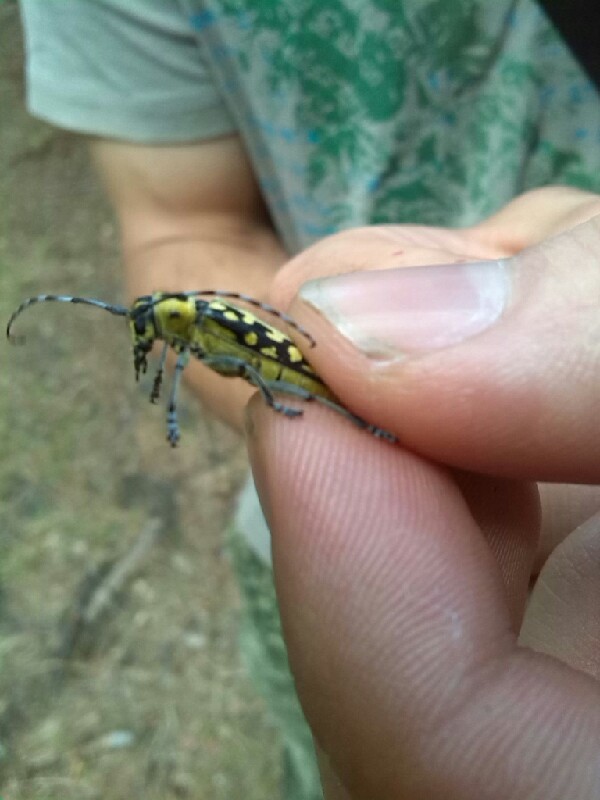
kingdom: Animalia
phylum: Arthropoda
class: Insecta
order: Coleoptera
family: Cerambycidae
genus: Saperda
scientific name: Saperda scalaris
